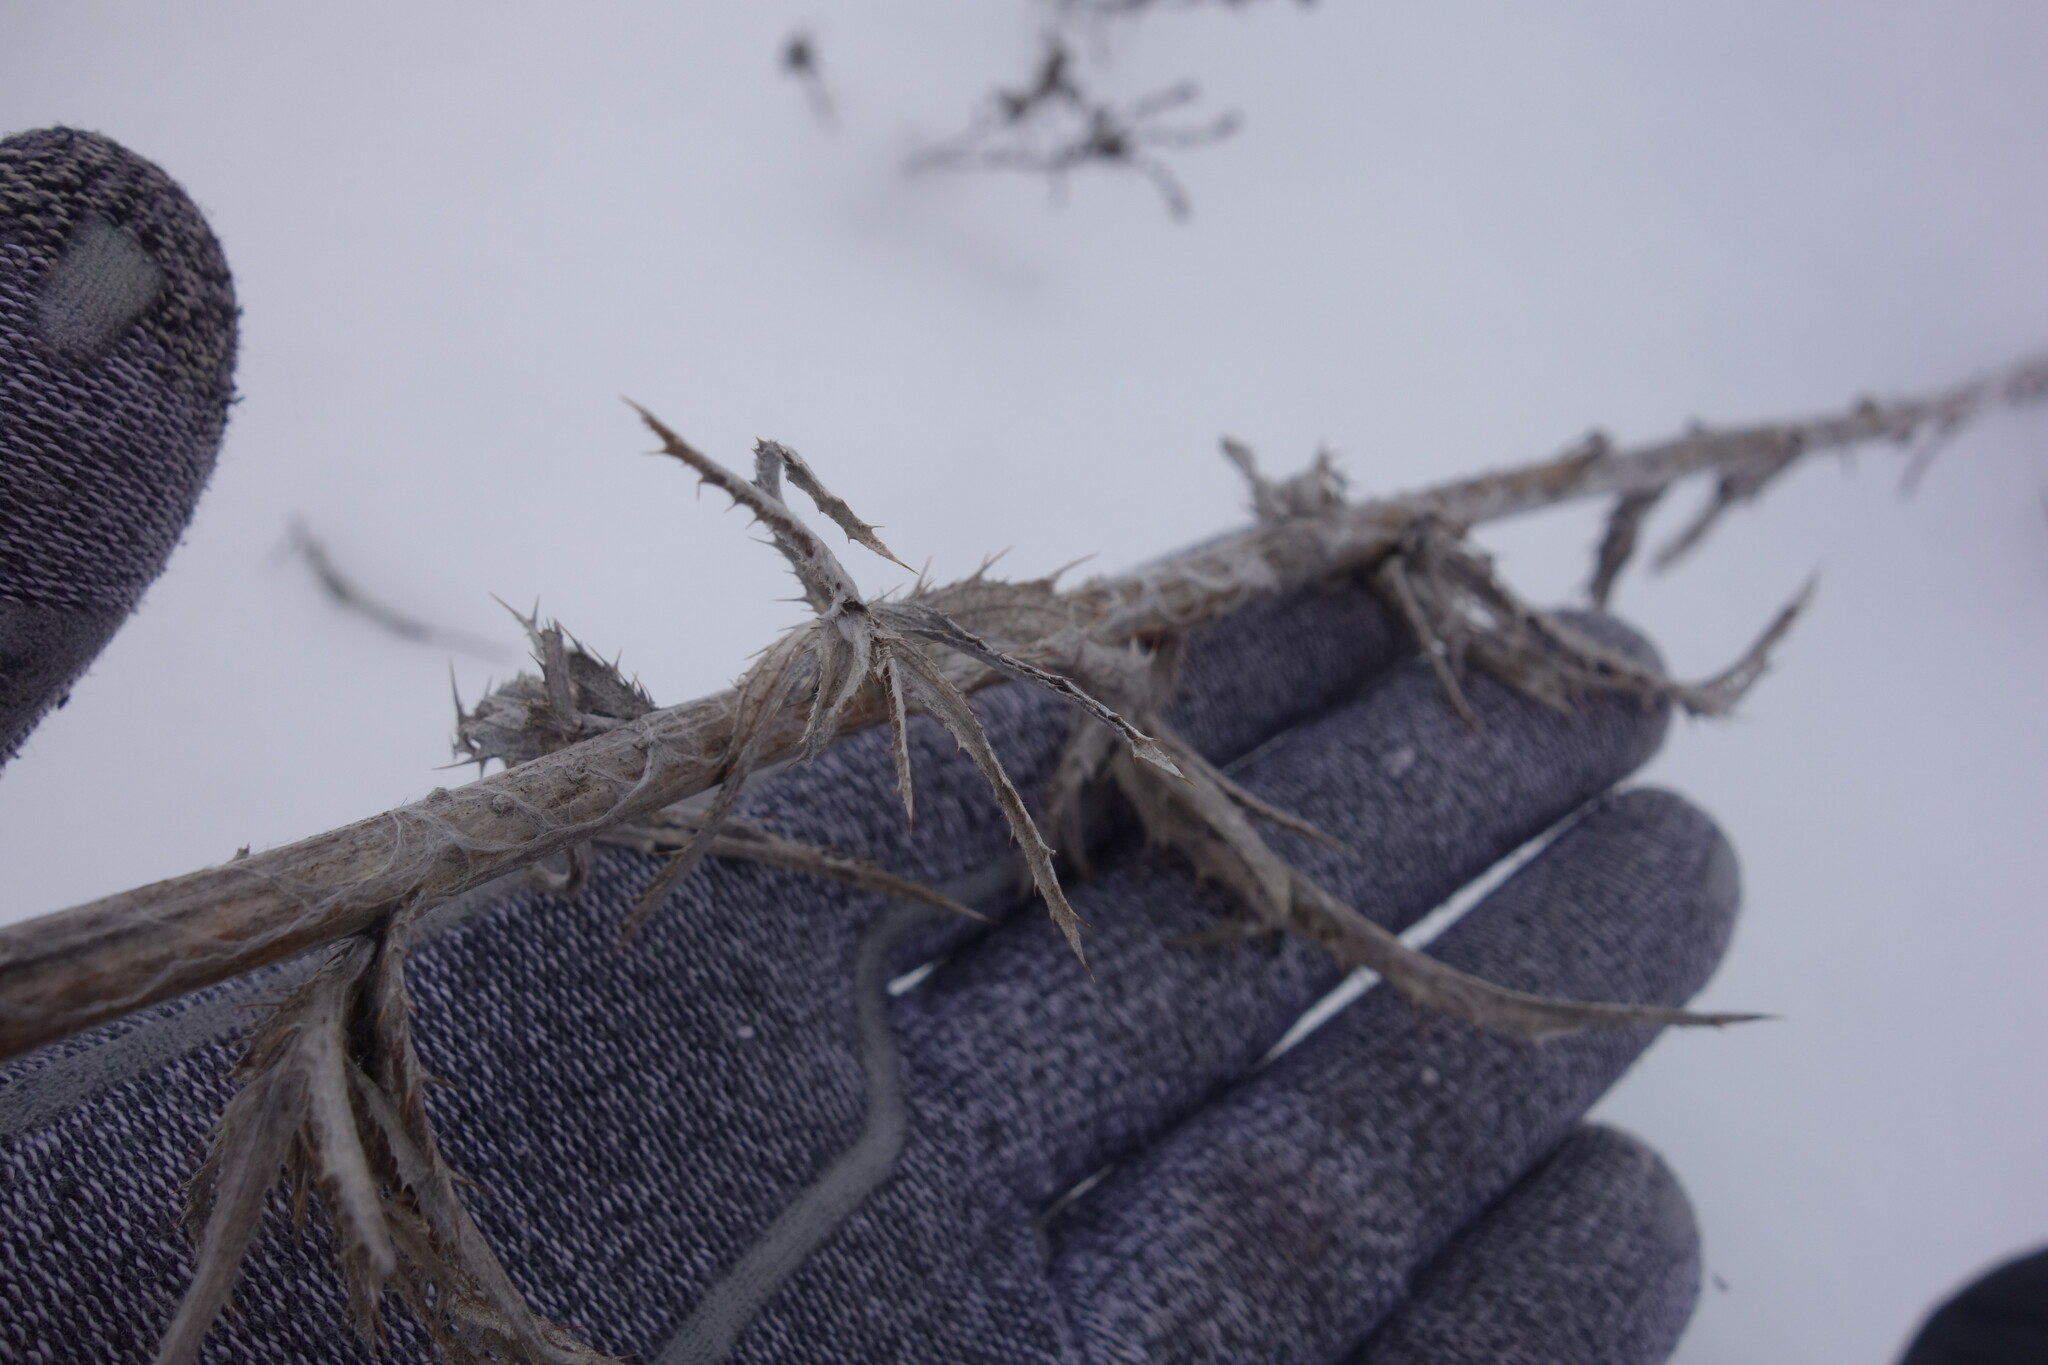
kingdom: Plantae
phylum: Tracheophyta
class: Magnoliopsida
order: Asterales
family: Asteraceae
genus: Carlina
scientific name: Carlina biebersteinii
